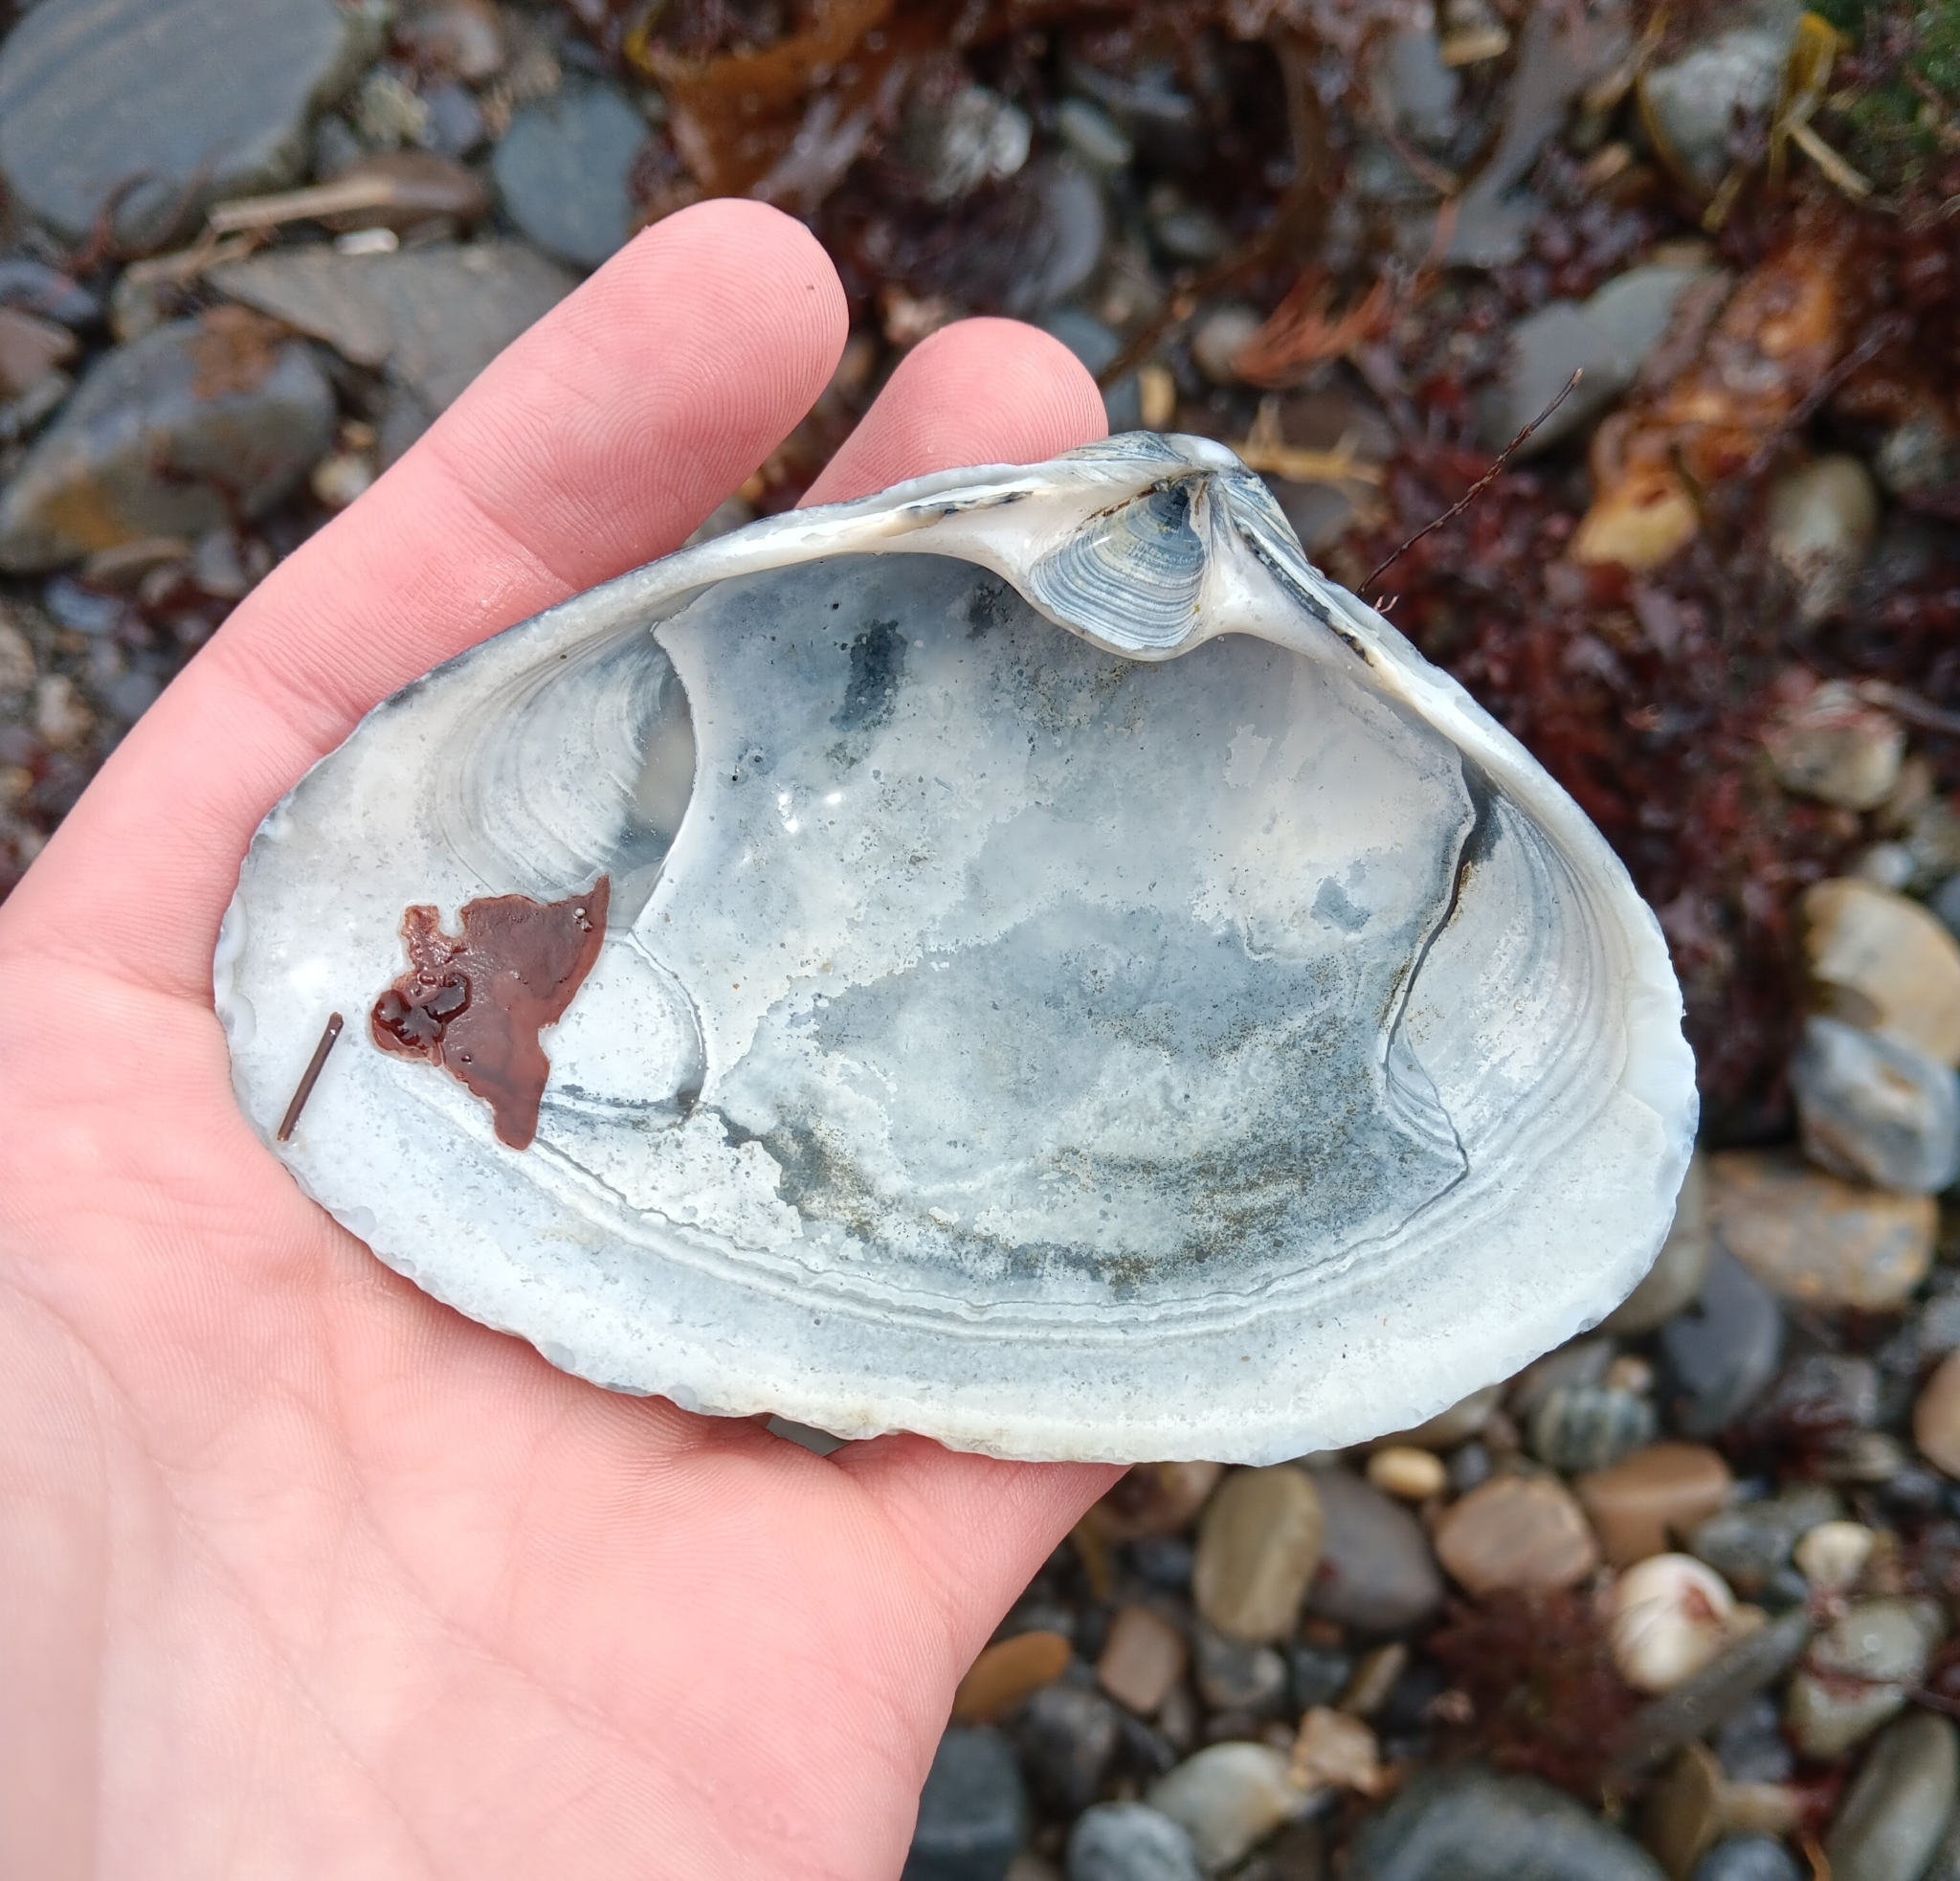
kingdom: Animalia
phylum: Mollusca
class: Bivalvia
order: Venerida
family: Mactridae
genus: Spisula
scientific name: Spisula solidissima
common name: Atlantic surf clam
